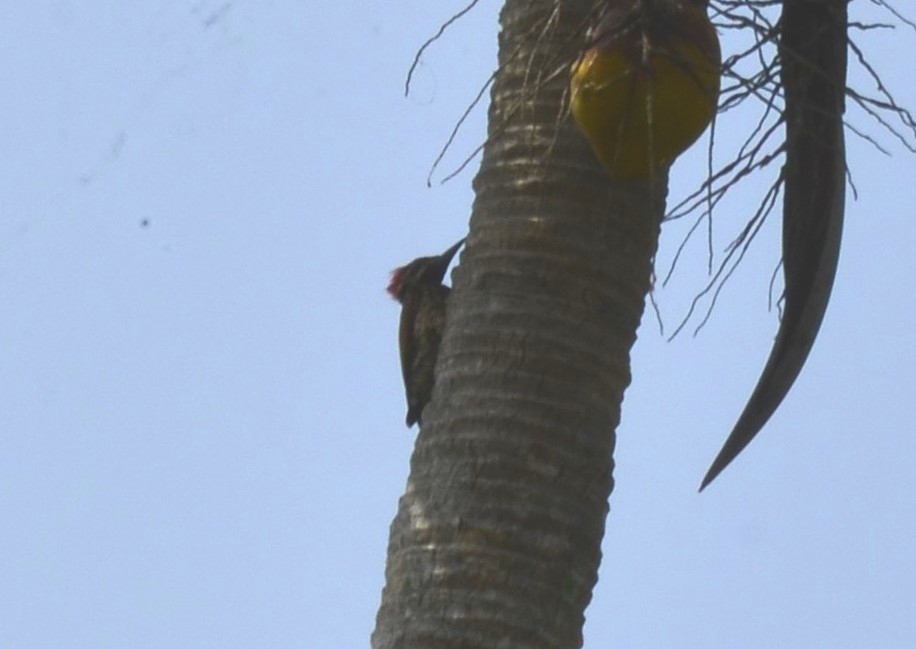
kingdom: Animalia
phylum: Chordata
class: Aves
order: Piciformes
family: Picidae
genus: Dinopium
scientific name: Dinopium benghalense
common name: Black-rumped flameback
